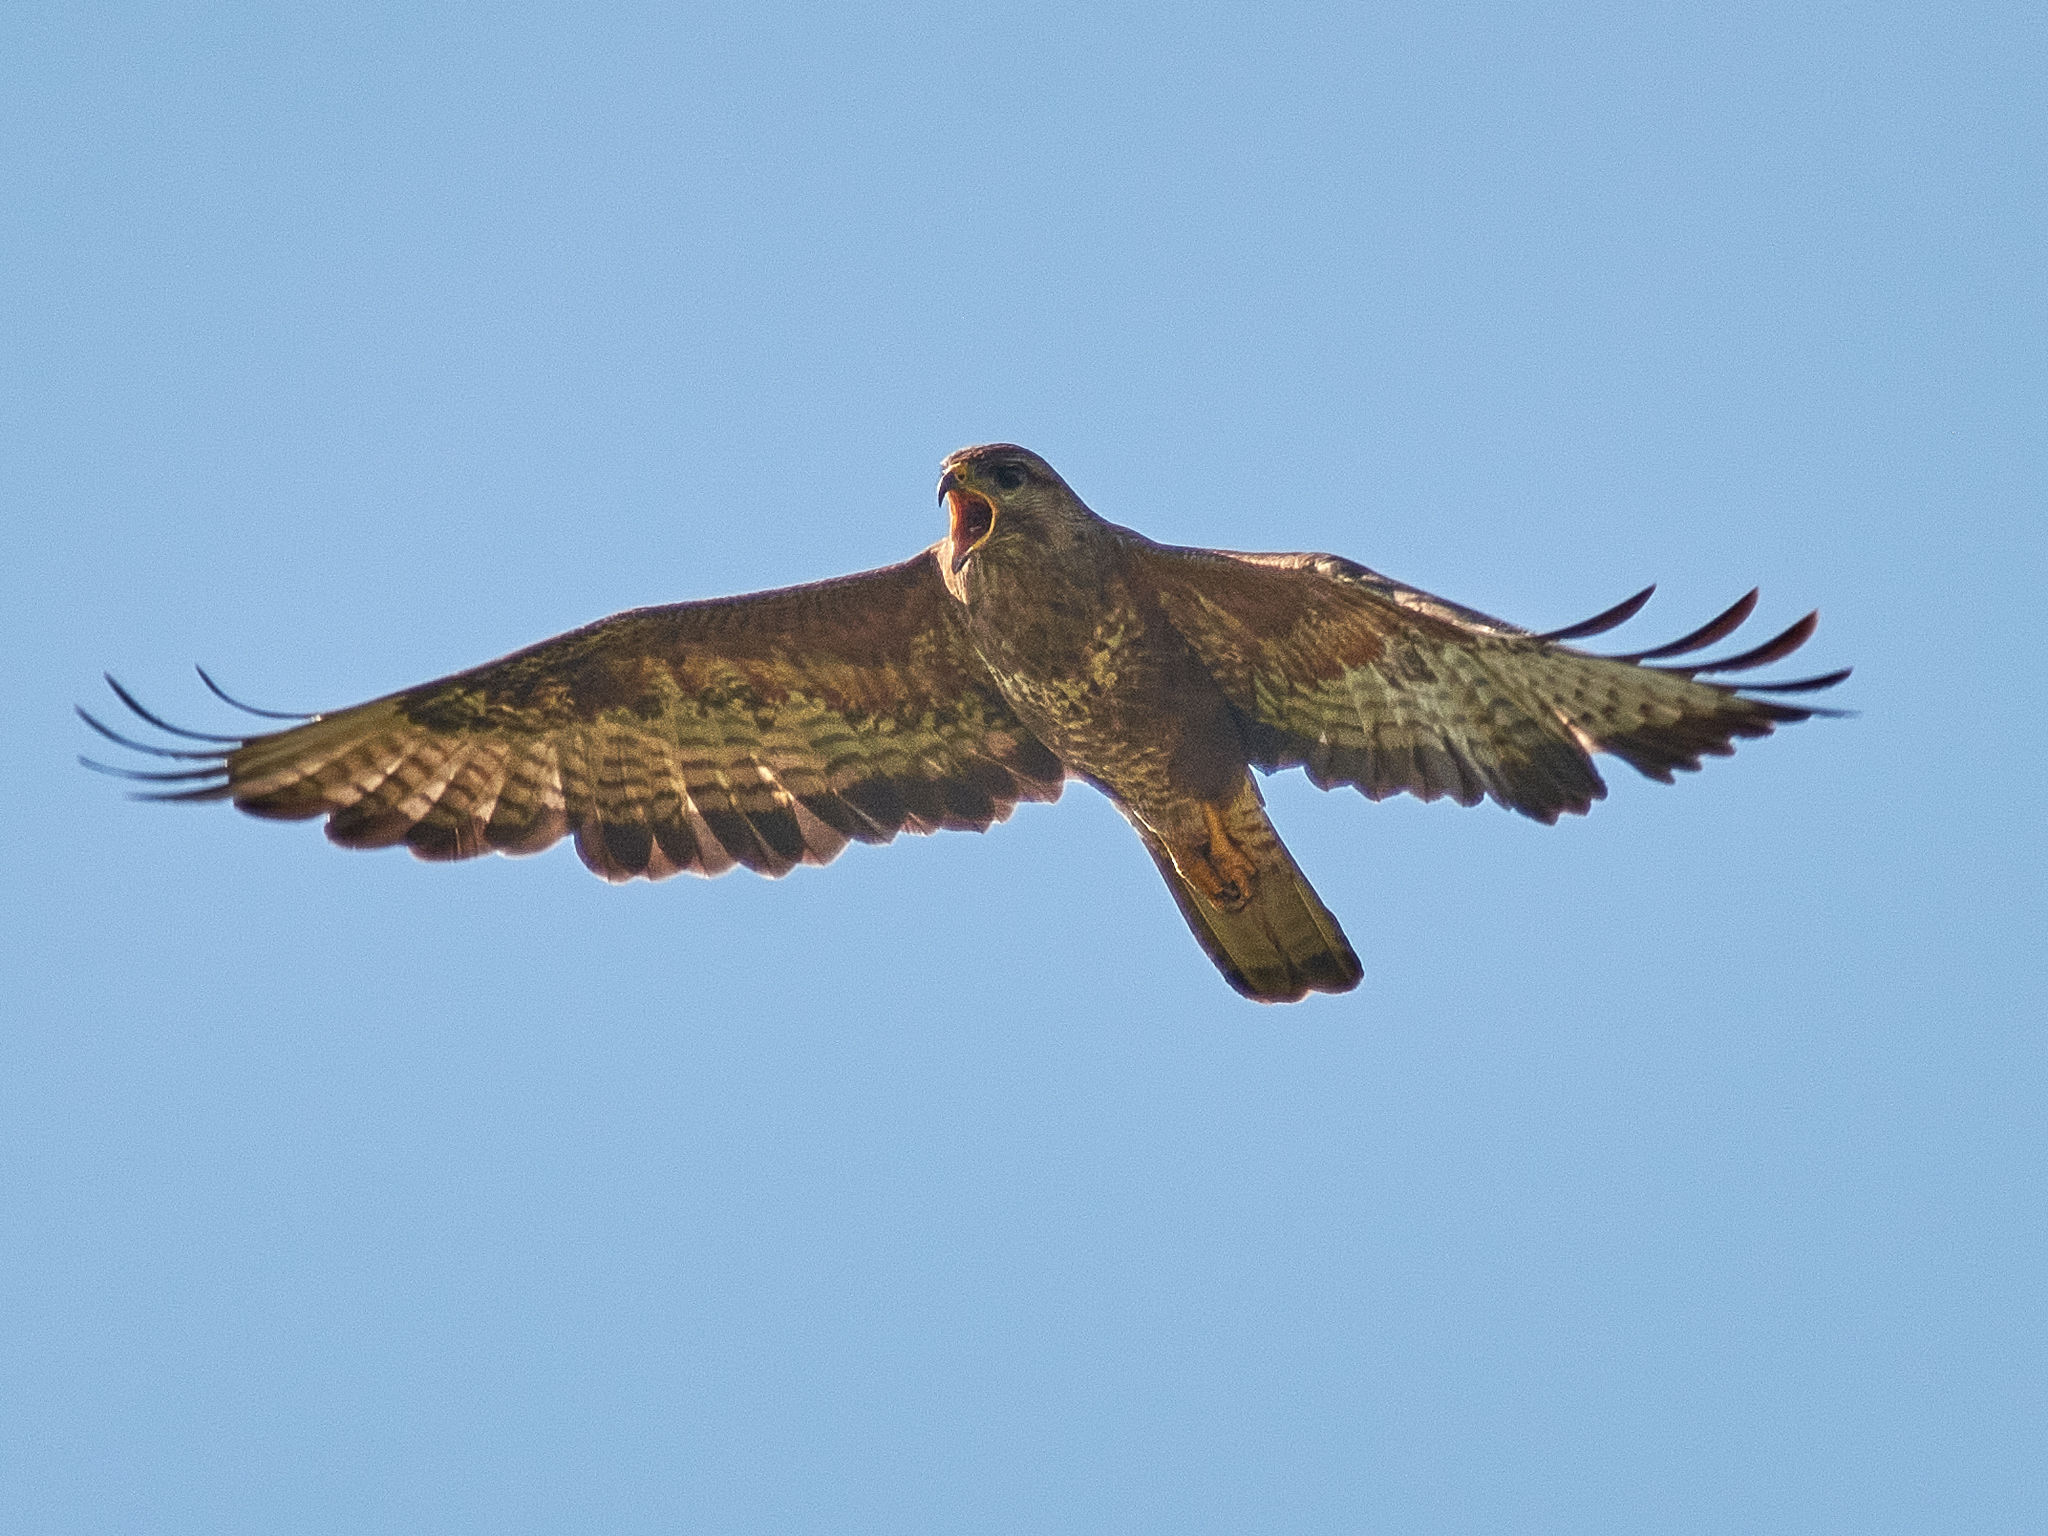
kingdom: Animalia
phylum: Chordata
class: Aves
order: Accipitriformes
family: Accipitridae
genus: Buteo
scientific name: Buteo buteo
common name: Common buzzard
